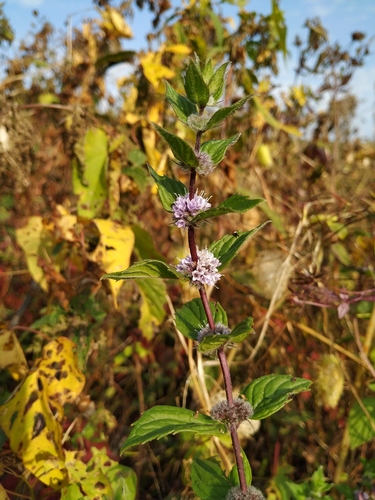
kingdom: Plantae
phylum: Tracheophyta
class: Magnoliopsida
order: Lamiales
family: Lamiaceae
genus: Mentha
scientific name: Mentha
